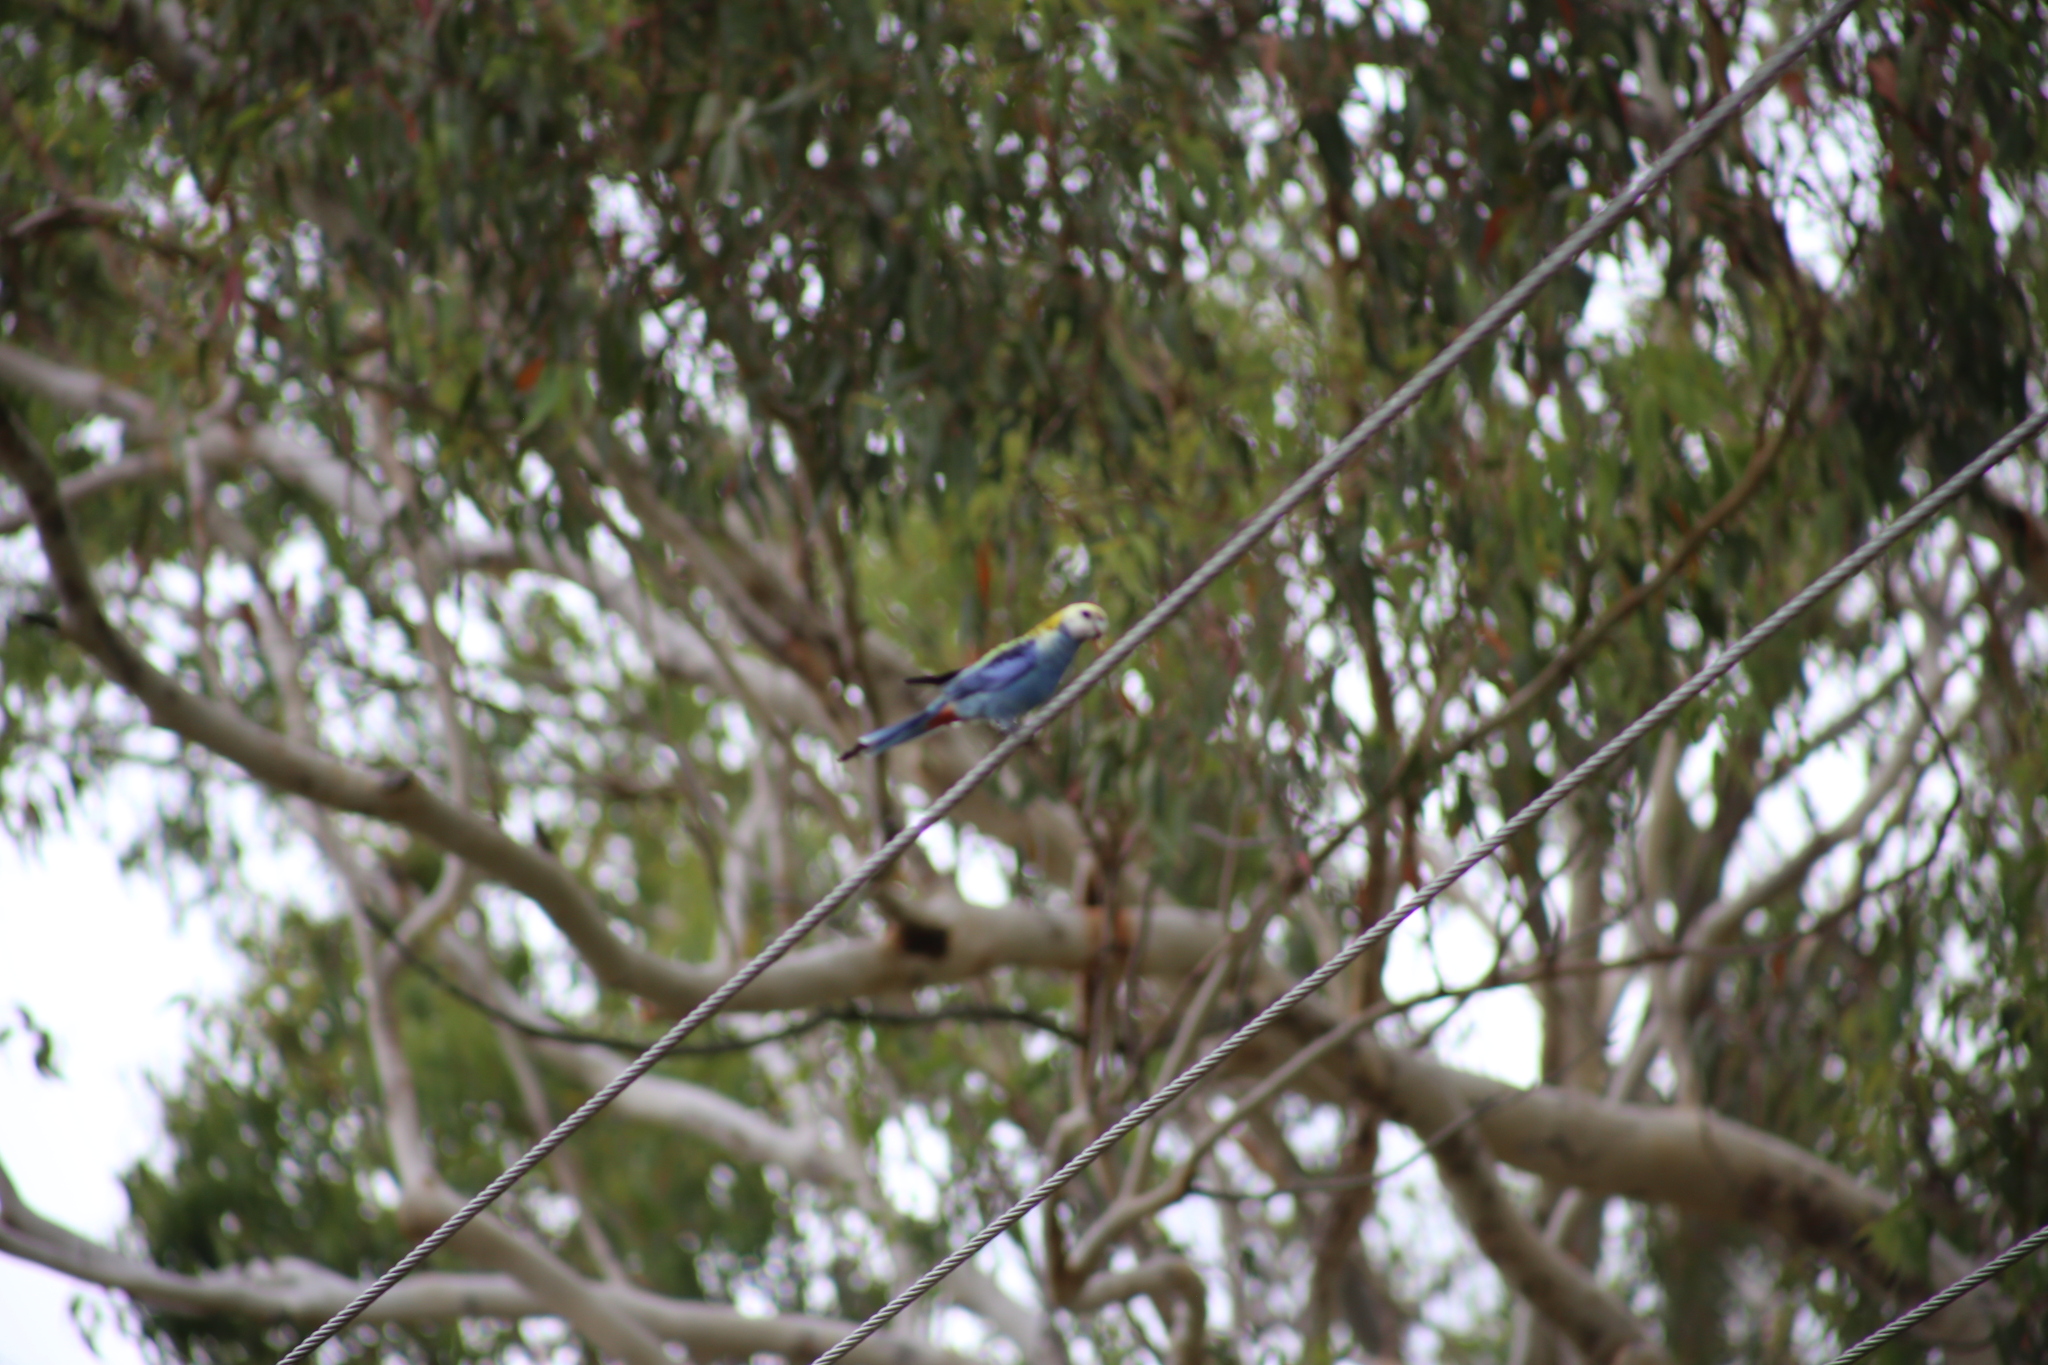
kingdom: Animalia
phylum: Chordata
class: Aves
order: Psittaciformes
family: Psittacidae
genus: Platycercus
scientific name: Platycercus adscitus
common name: Pale-headed rosella
